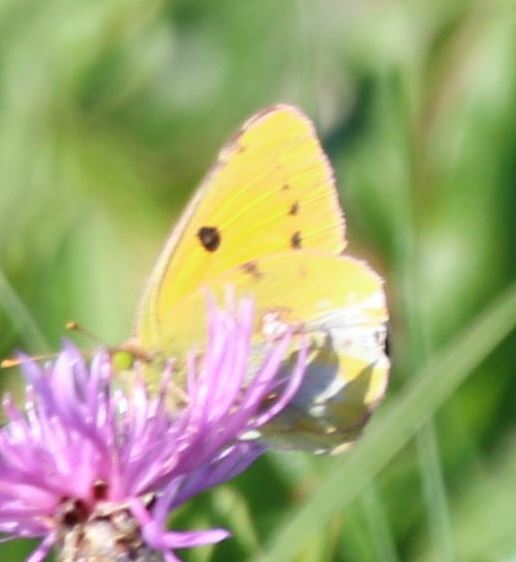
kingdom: Animalia
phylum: Arthropoda
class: Insecta
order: Lepidoptera
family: Pieridae
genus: Colias
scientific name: Colias croceus
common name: Clouded yellow
